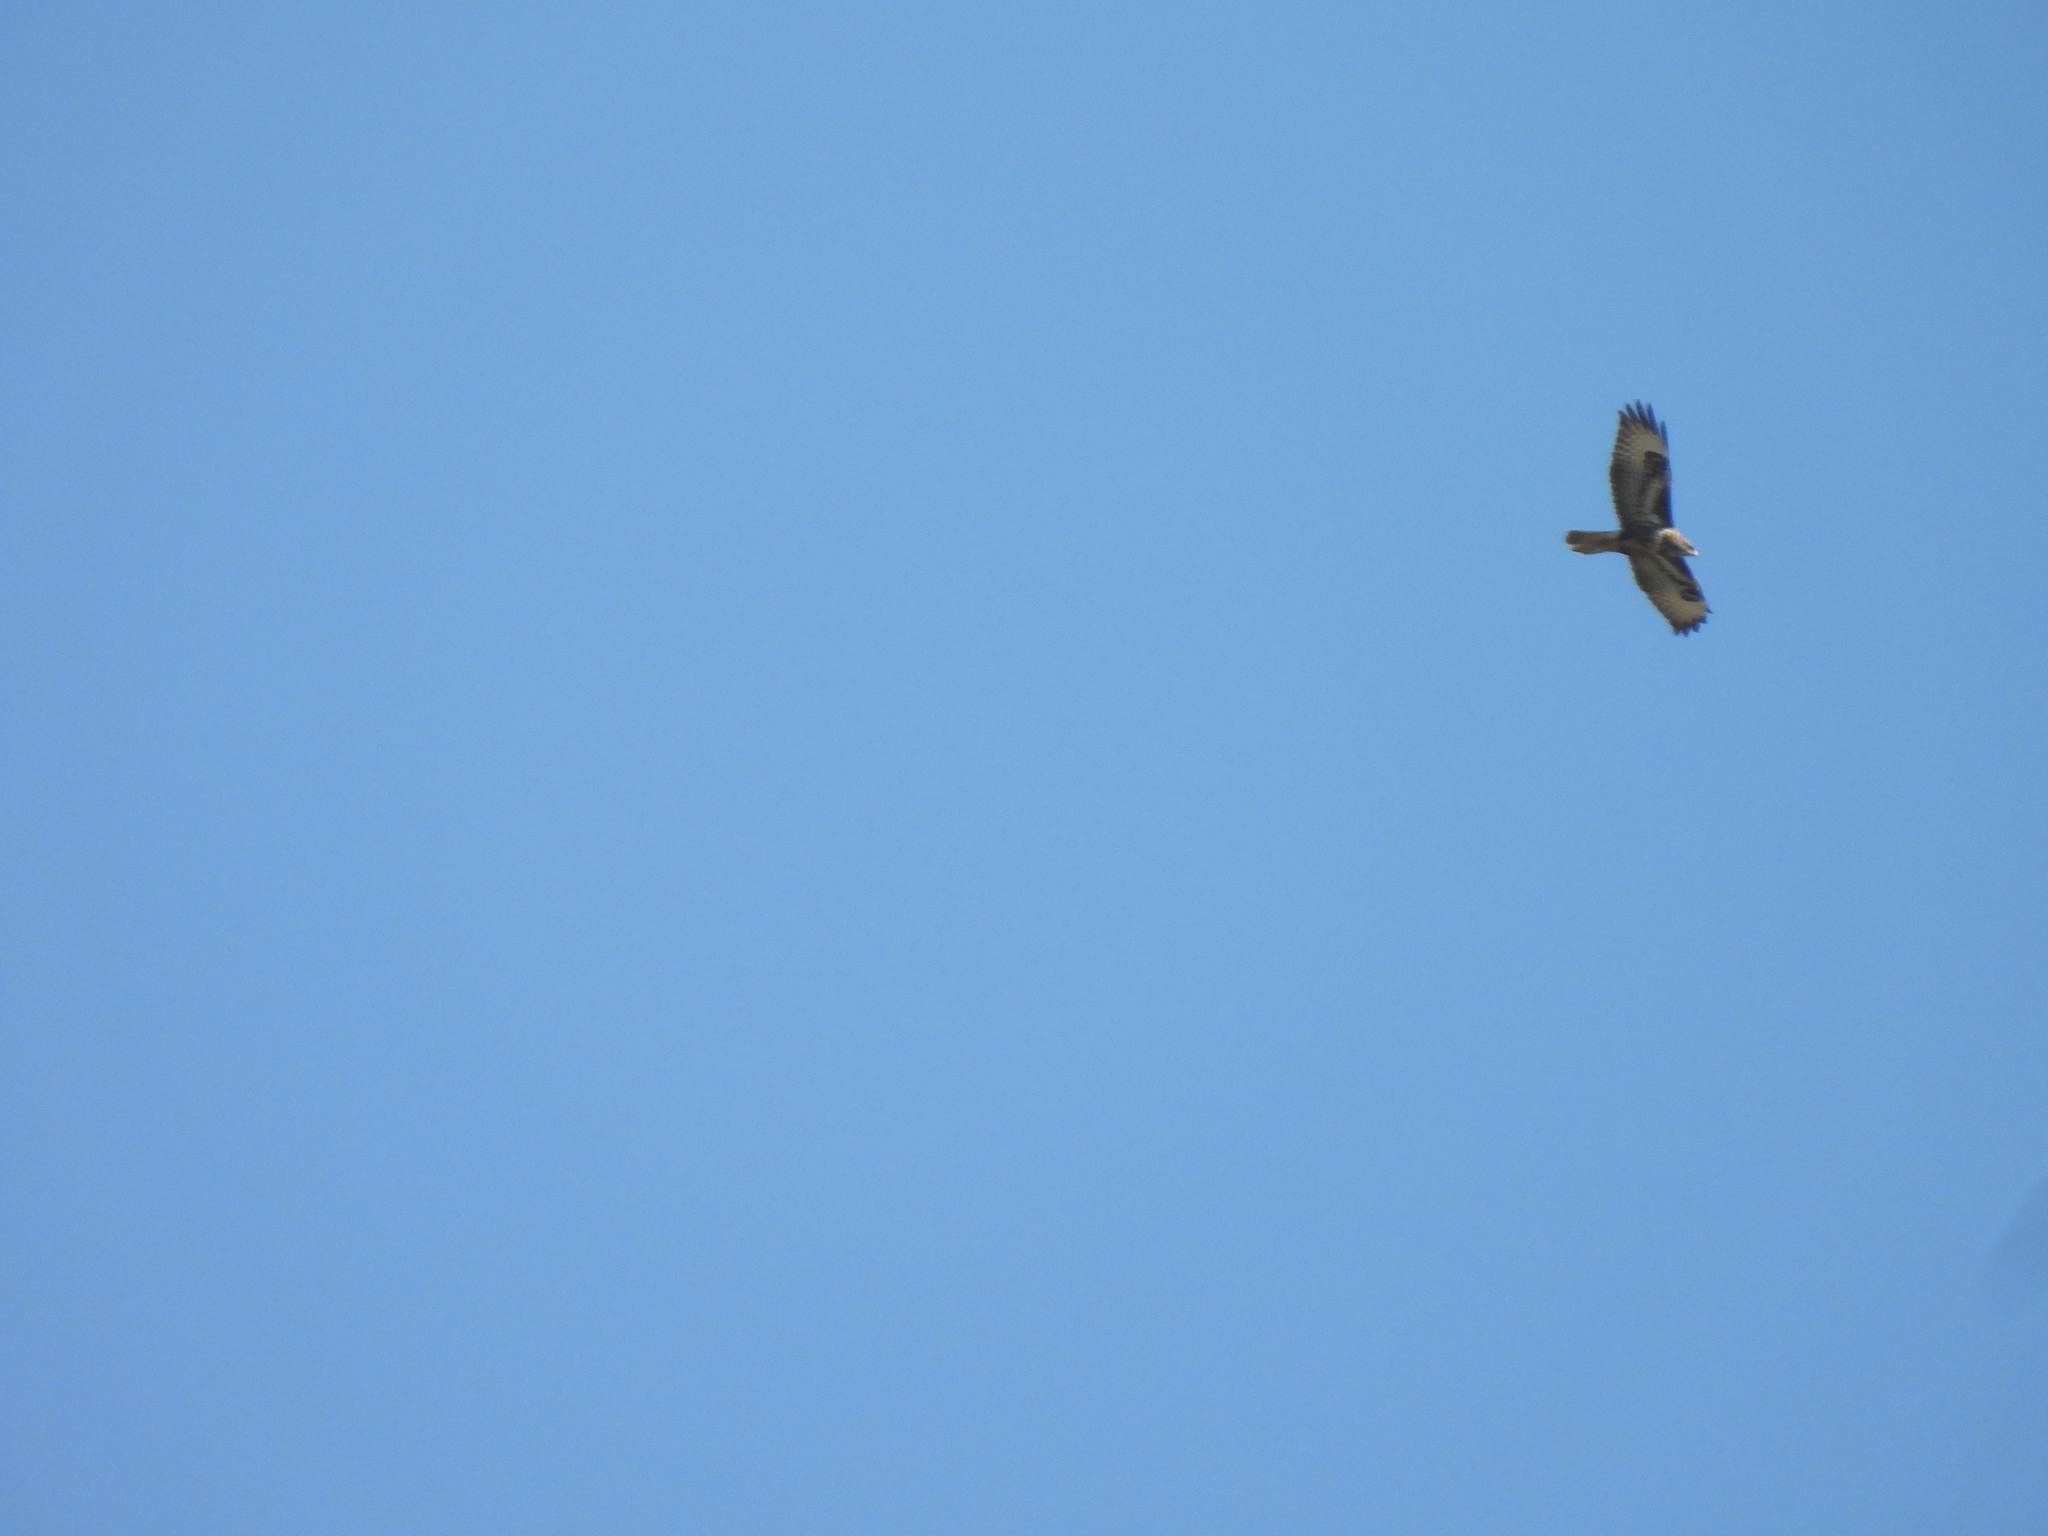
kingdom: Animalia
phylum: Chordata
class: Aves
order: Accipitriformes
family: Accipitridae
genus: Buteo
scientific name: Buteo buteo
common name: Common buzzard
